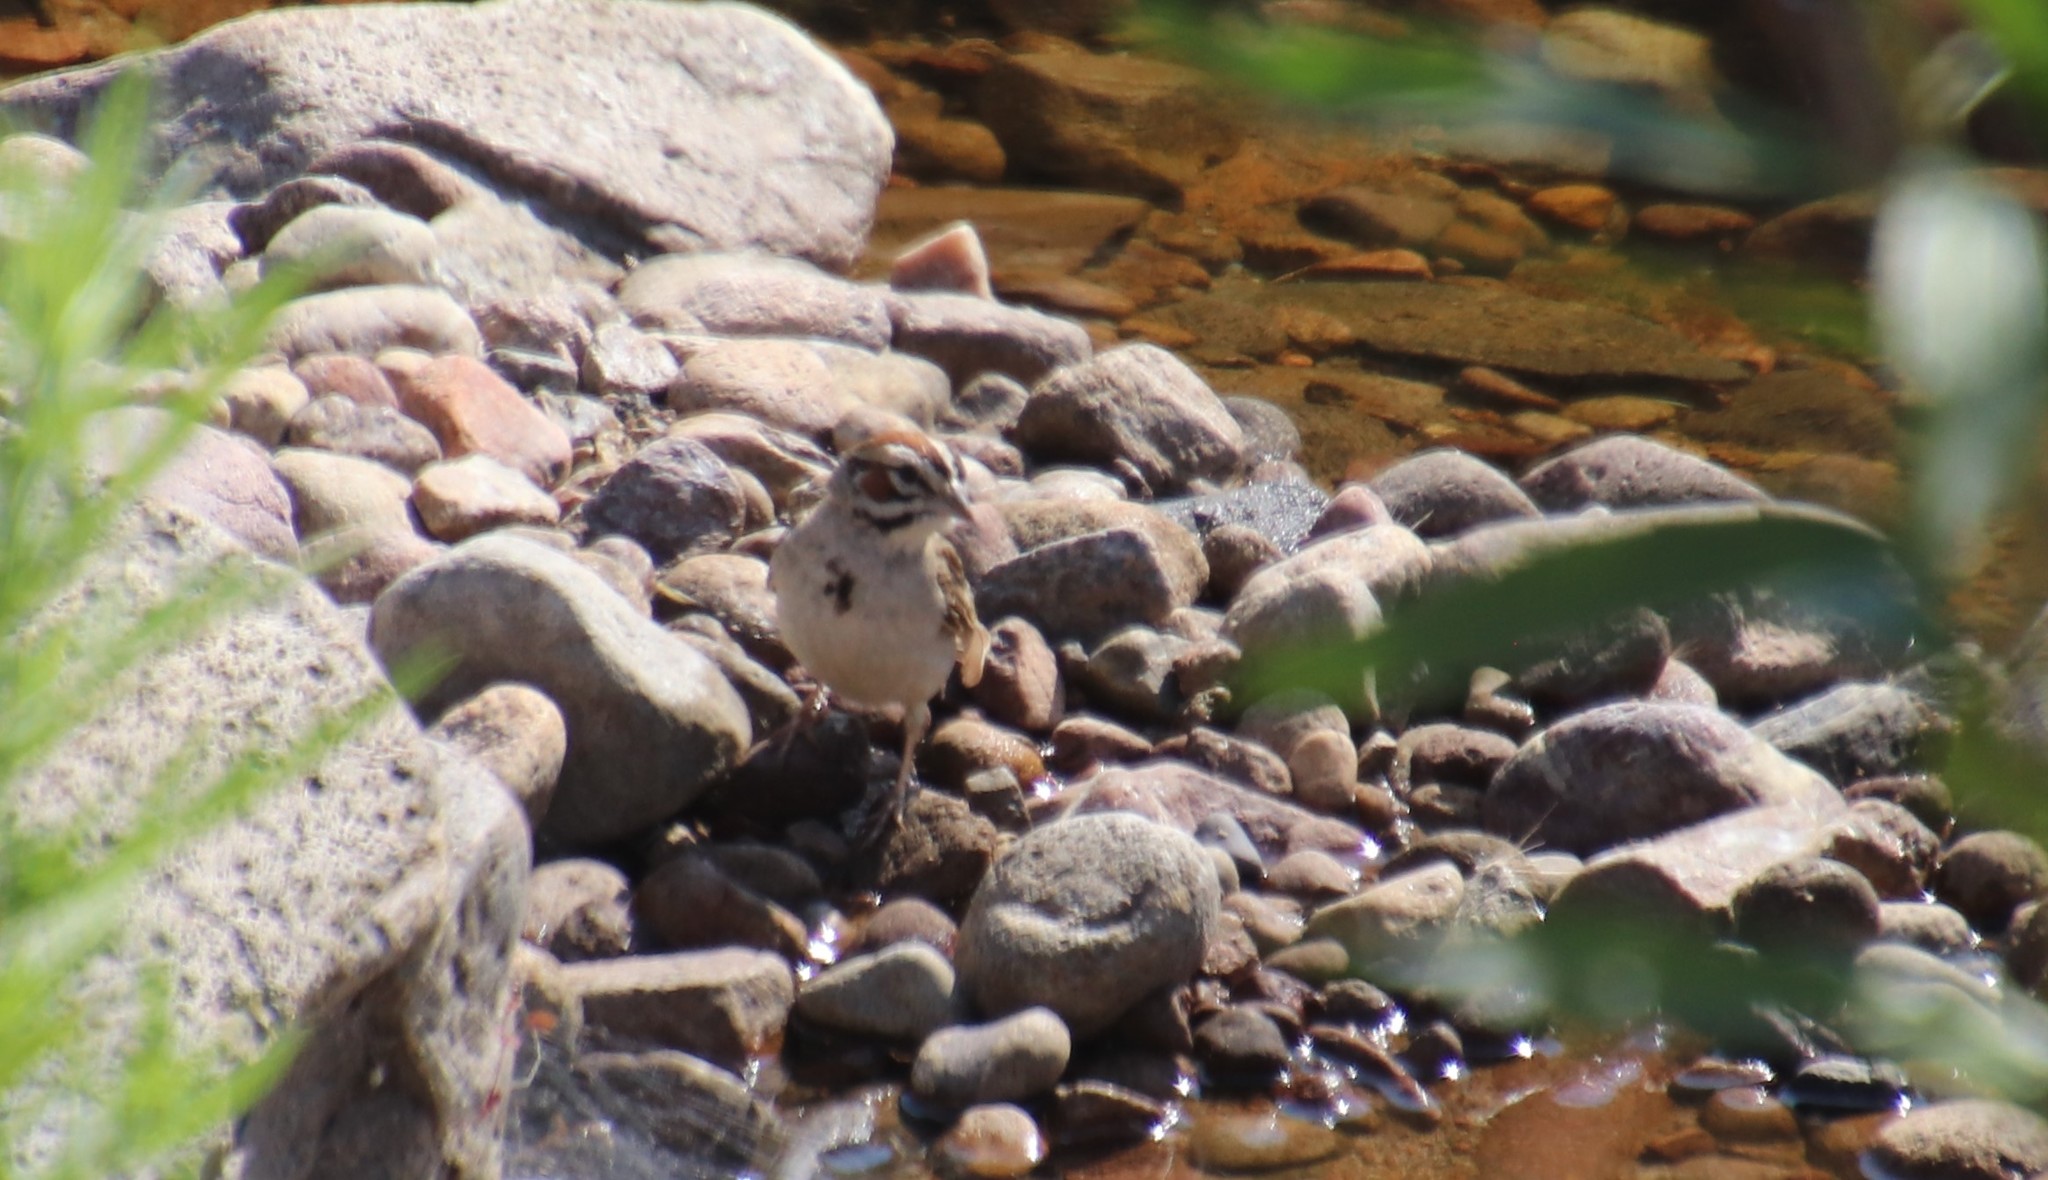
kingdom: Animalia
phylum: Chordata
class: Aves
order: Passeriformes
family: Passerellidae
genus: Chondestes
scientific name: Chondestes grammacus
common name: Lark sparrow
